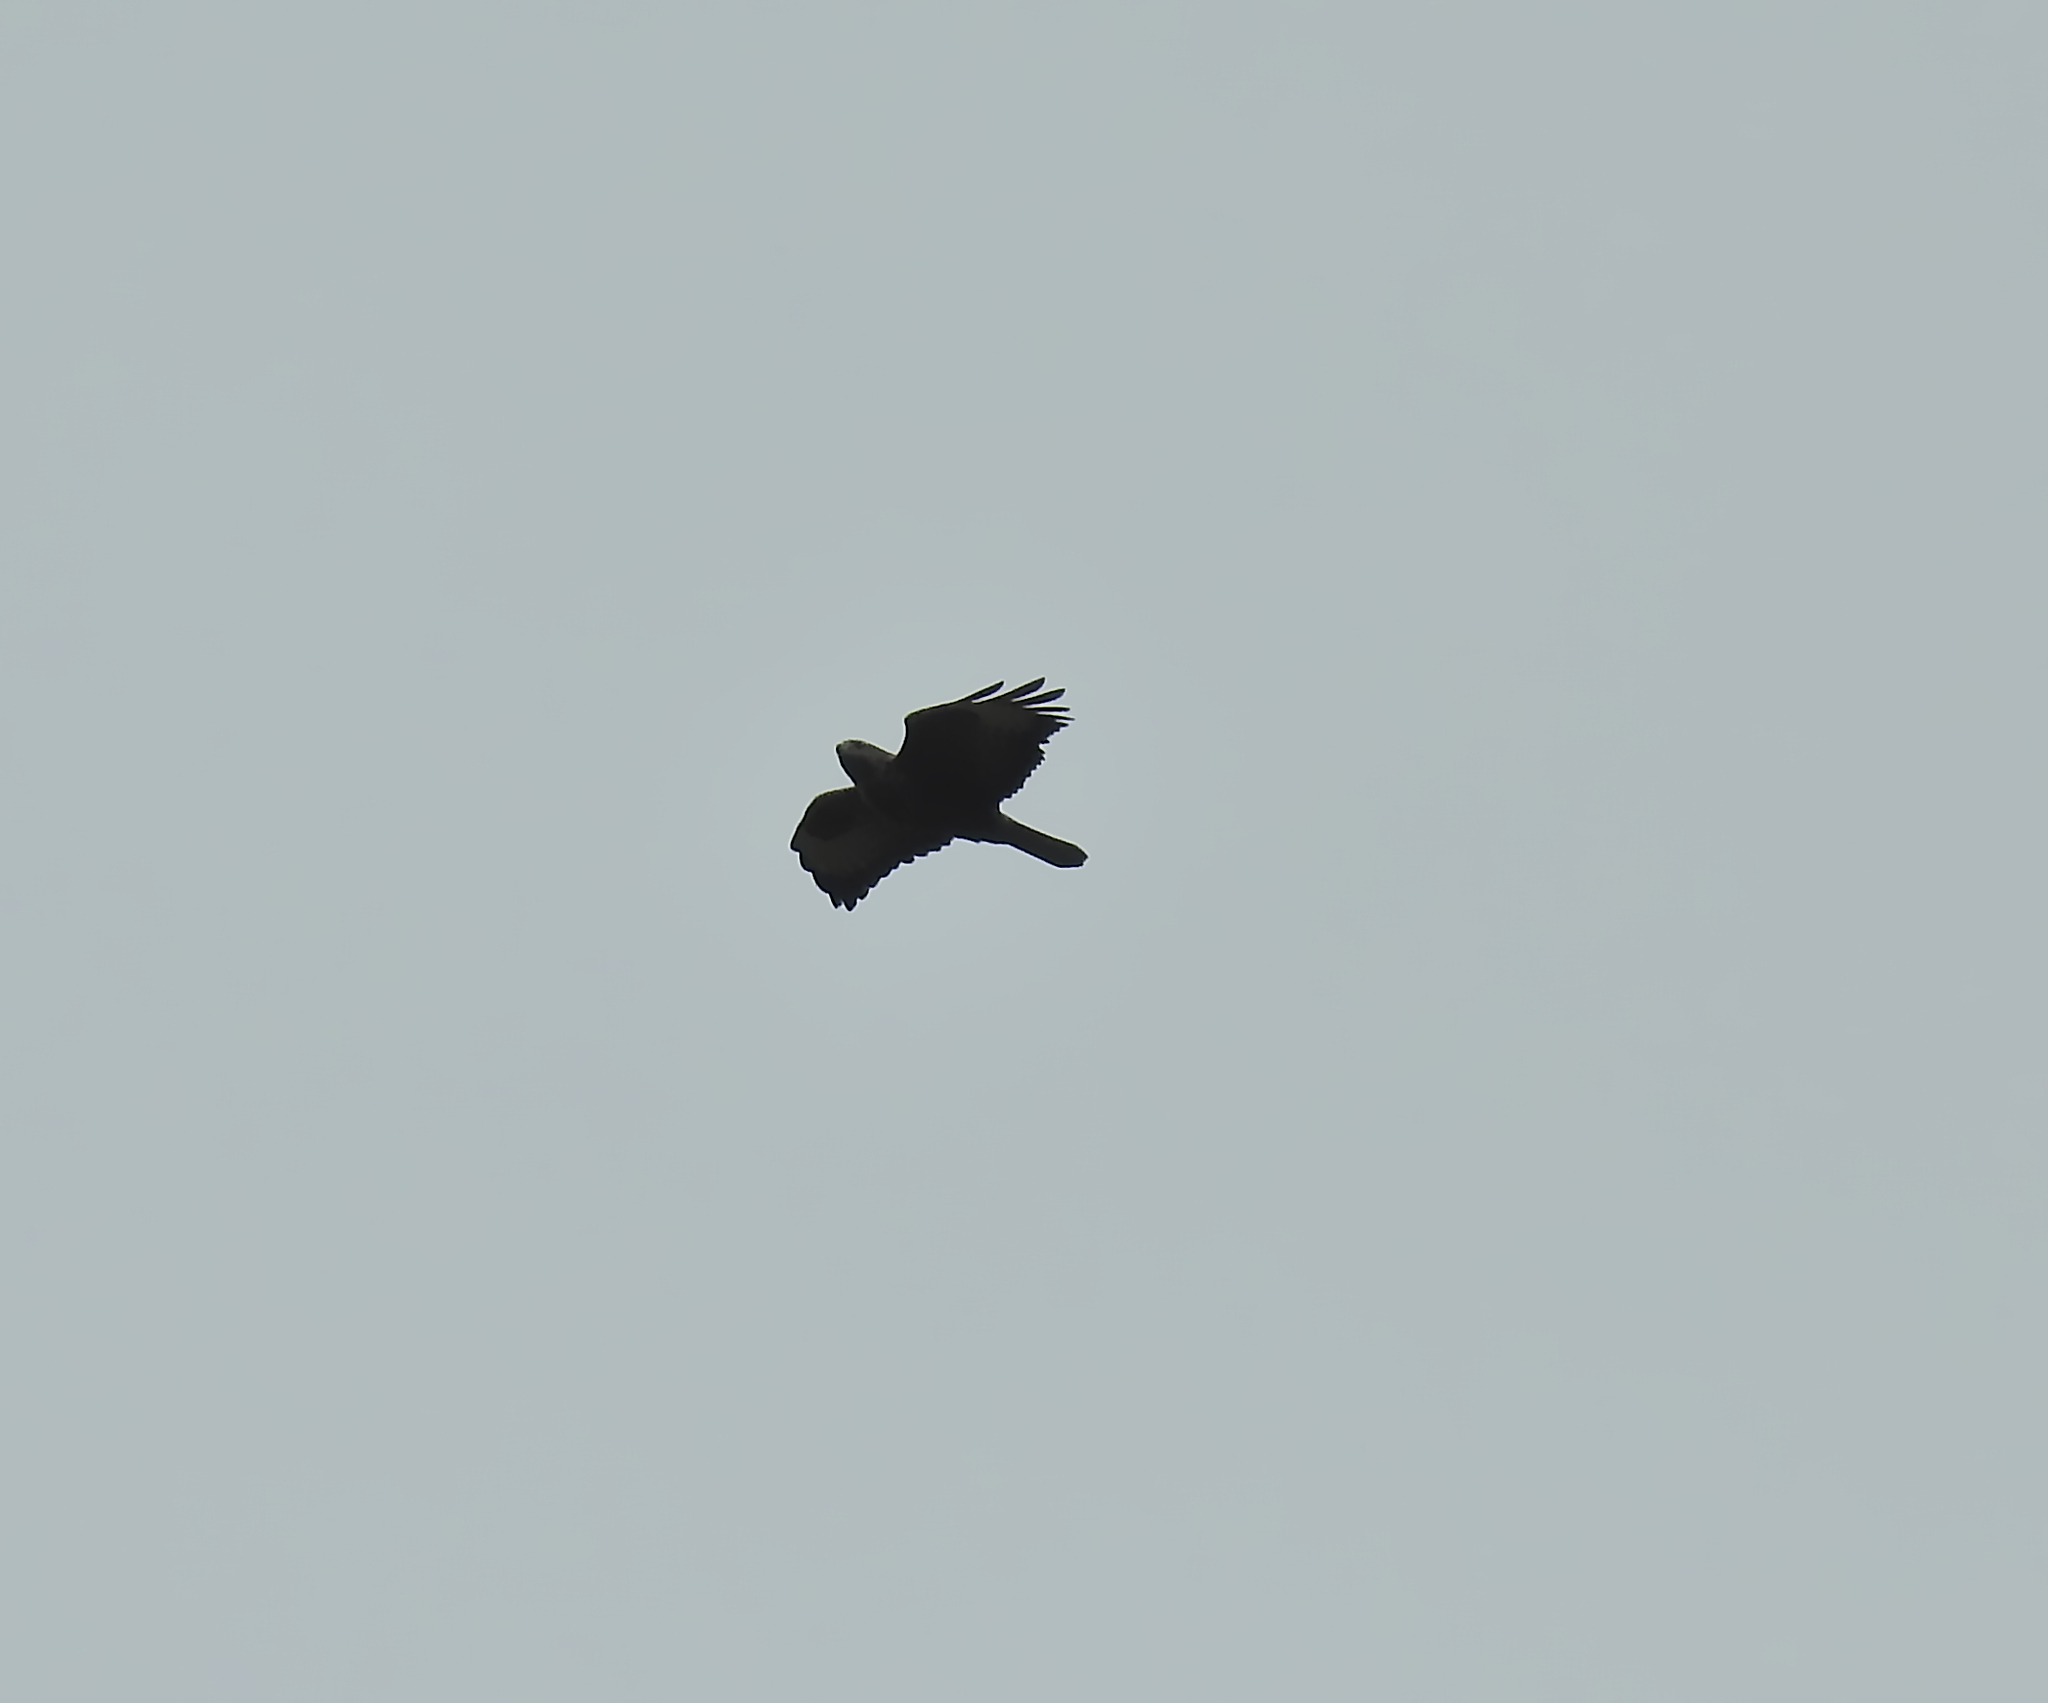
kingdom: Animalia
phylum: Chordata
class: Aves
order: Accipitriformes
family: Accipitridae
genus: Buteo
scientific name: Buteo buteo
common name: Common buzzard
